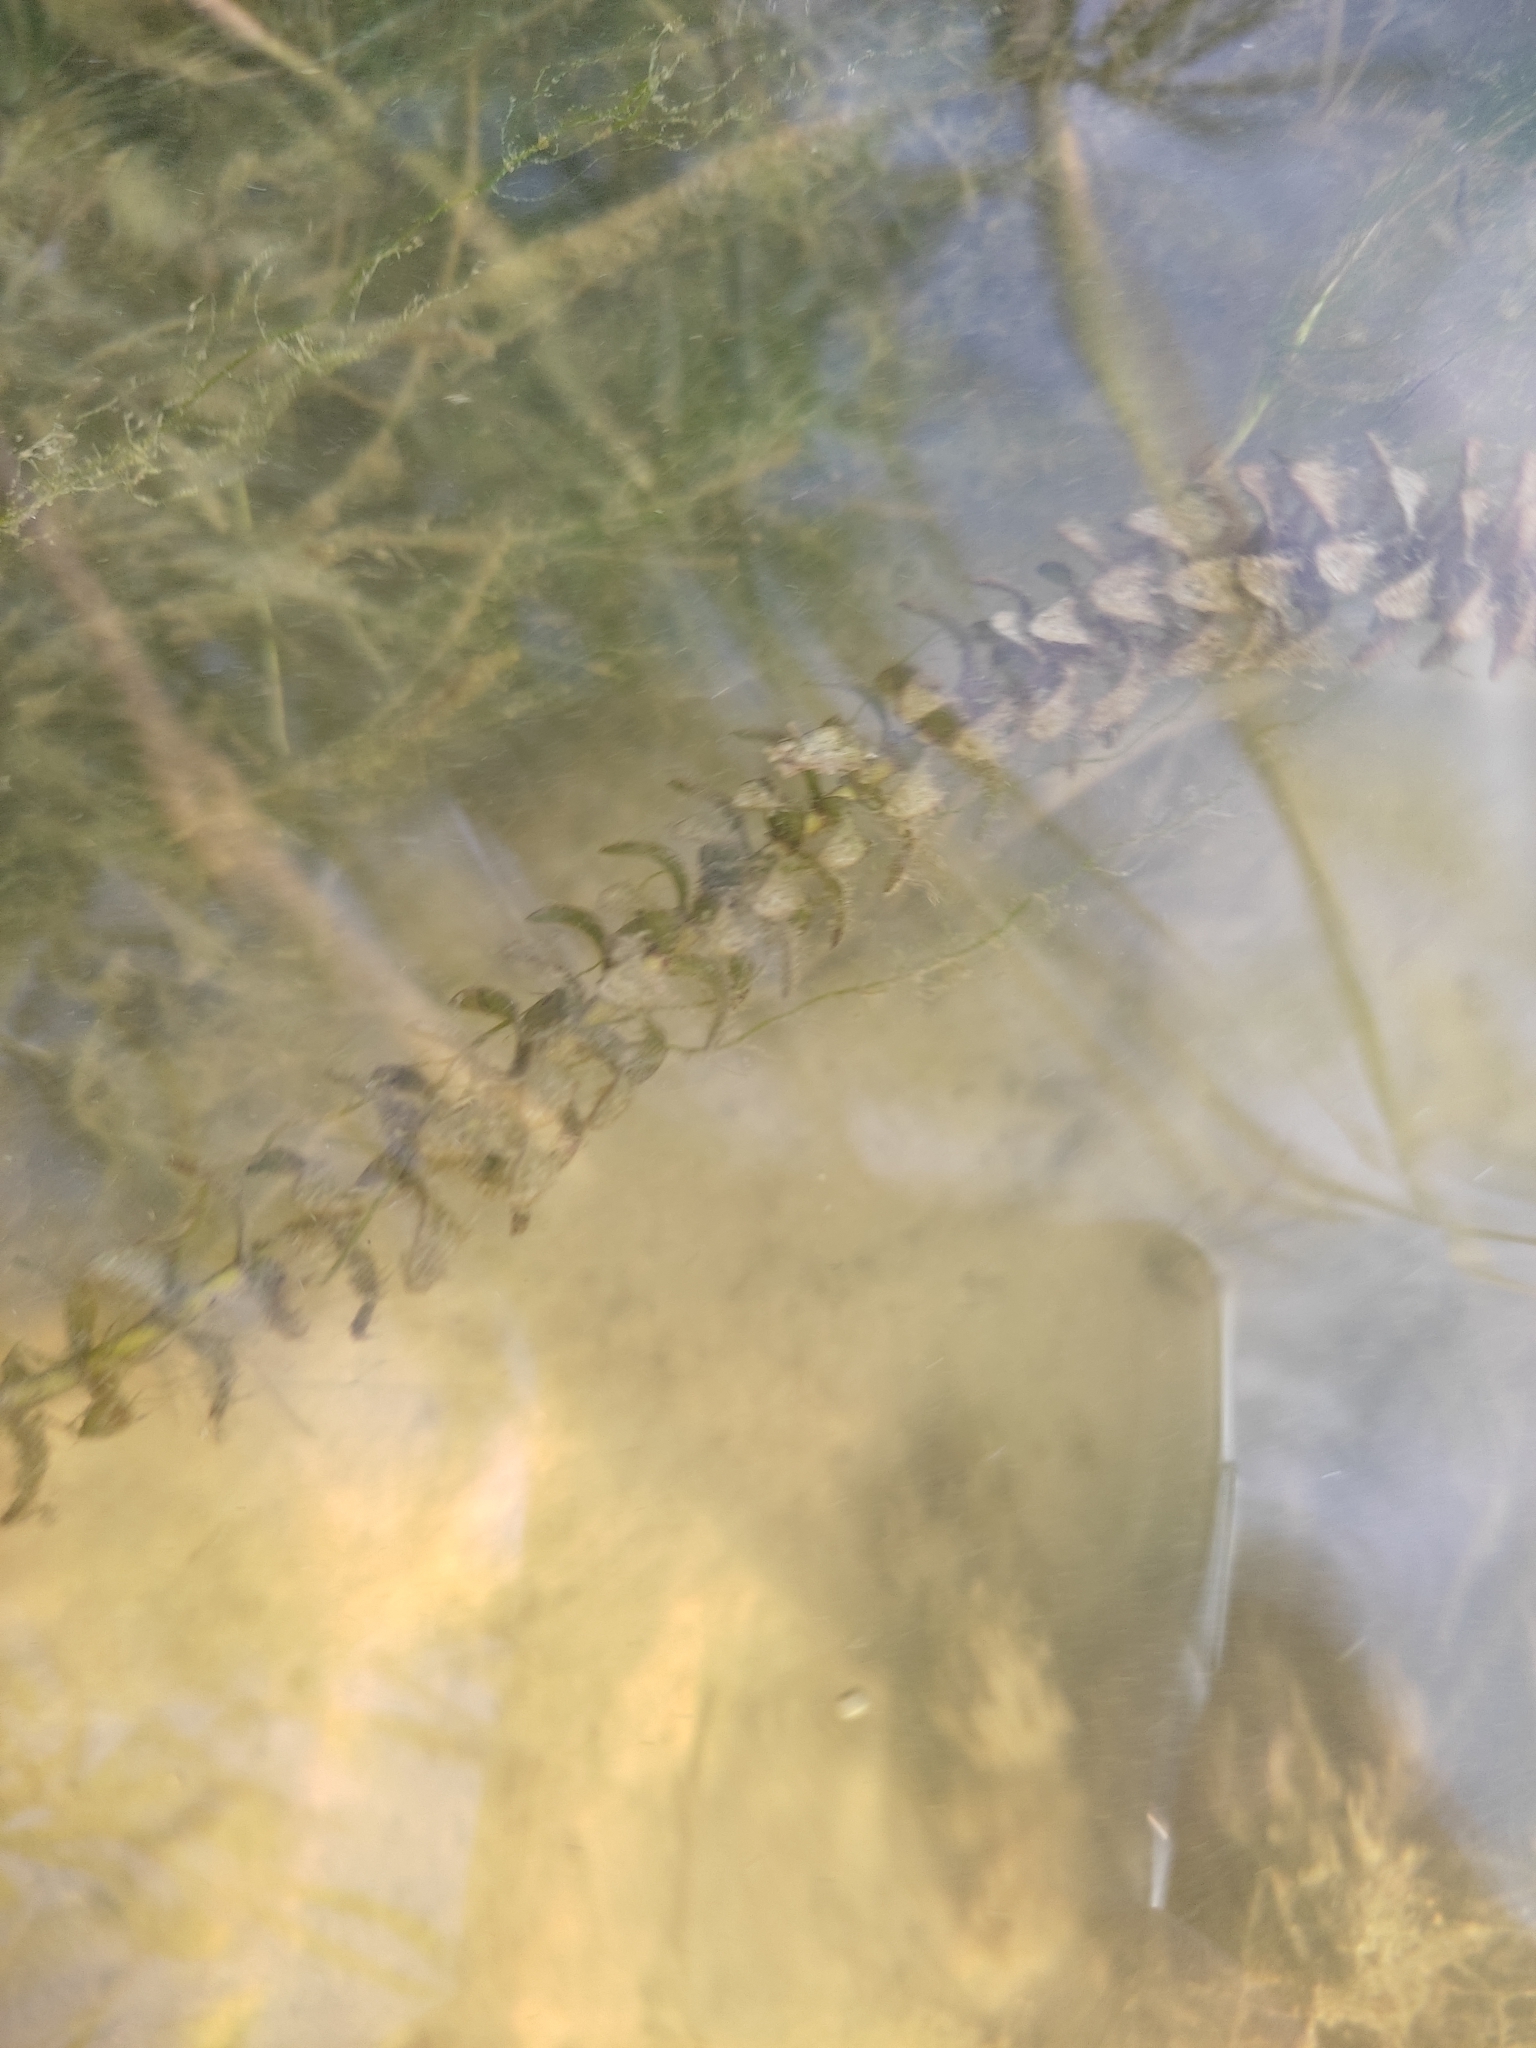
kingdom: Plantae
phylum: Tracheophyta
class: Liliopsida
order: Alismatales
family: Hydrocharitaceae
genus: Elodea
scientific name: Elodea canadensis
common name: Canadian waterweed
